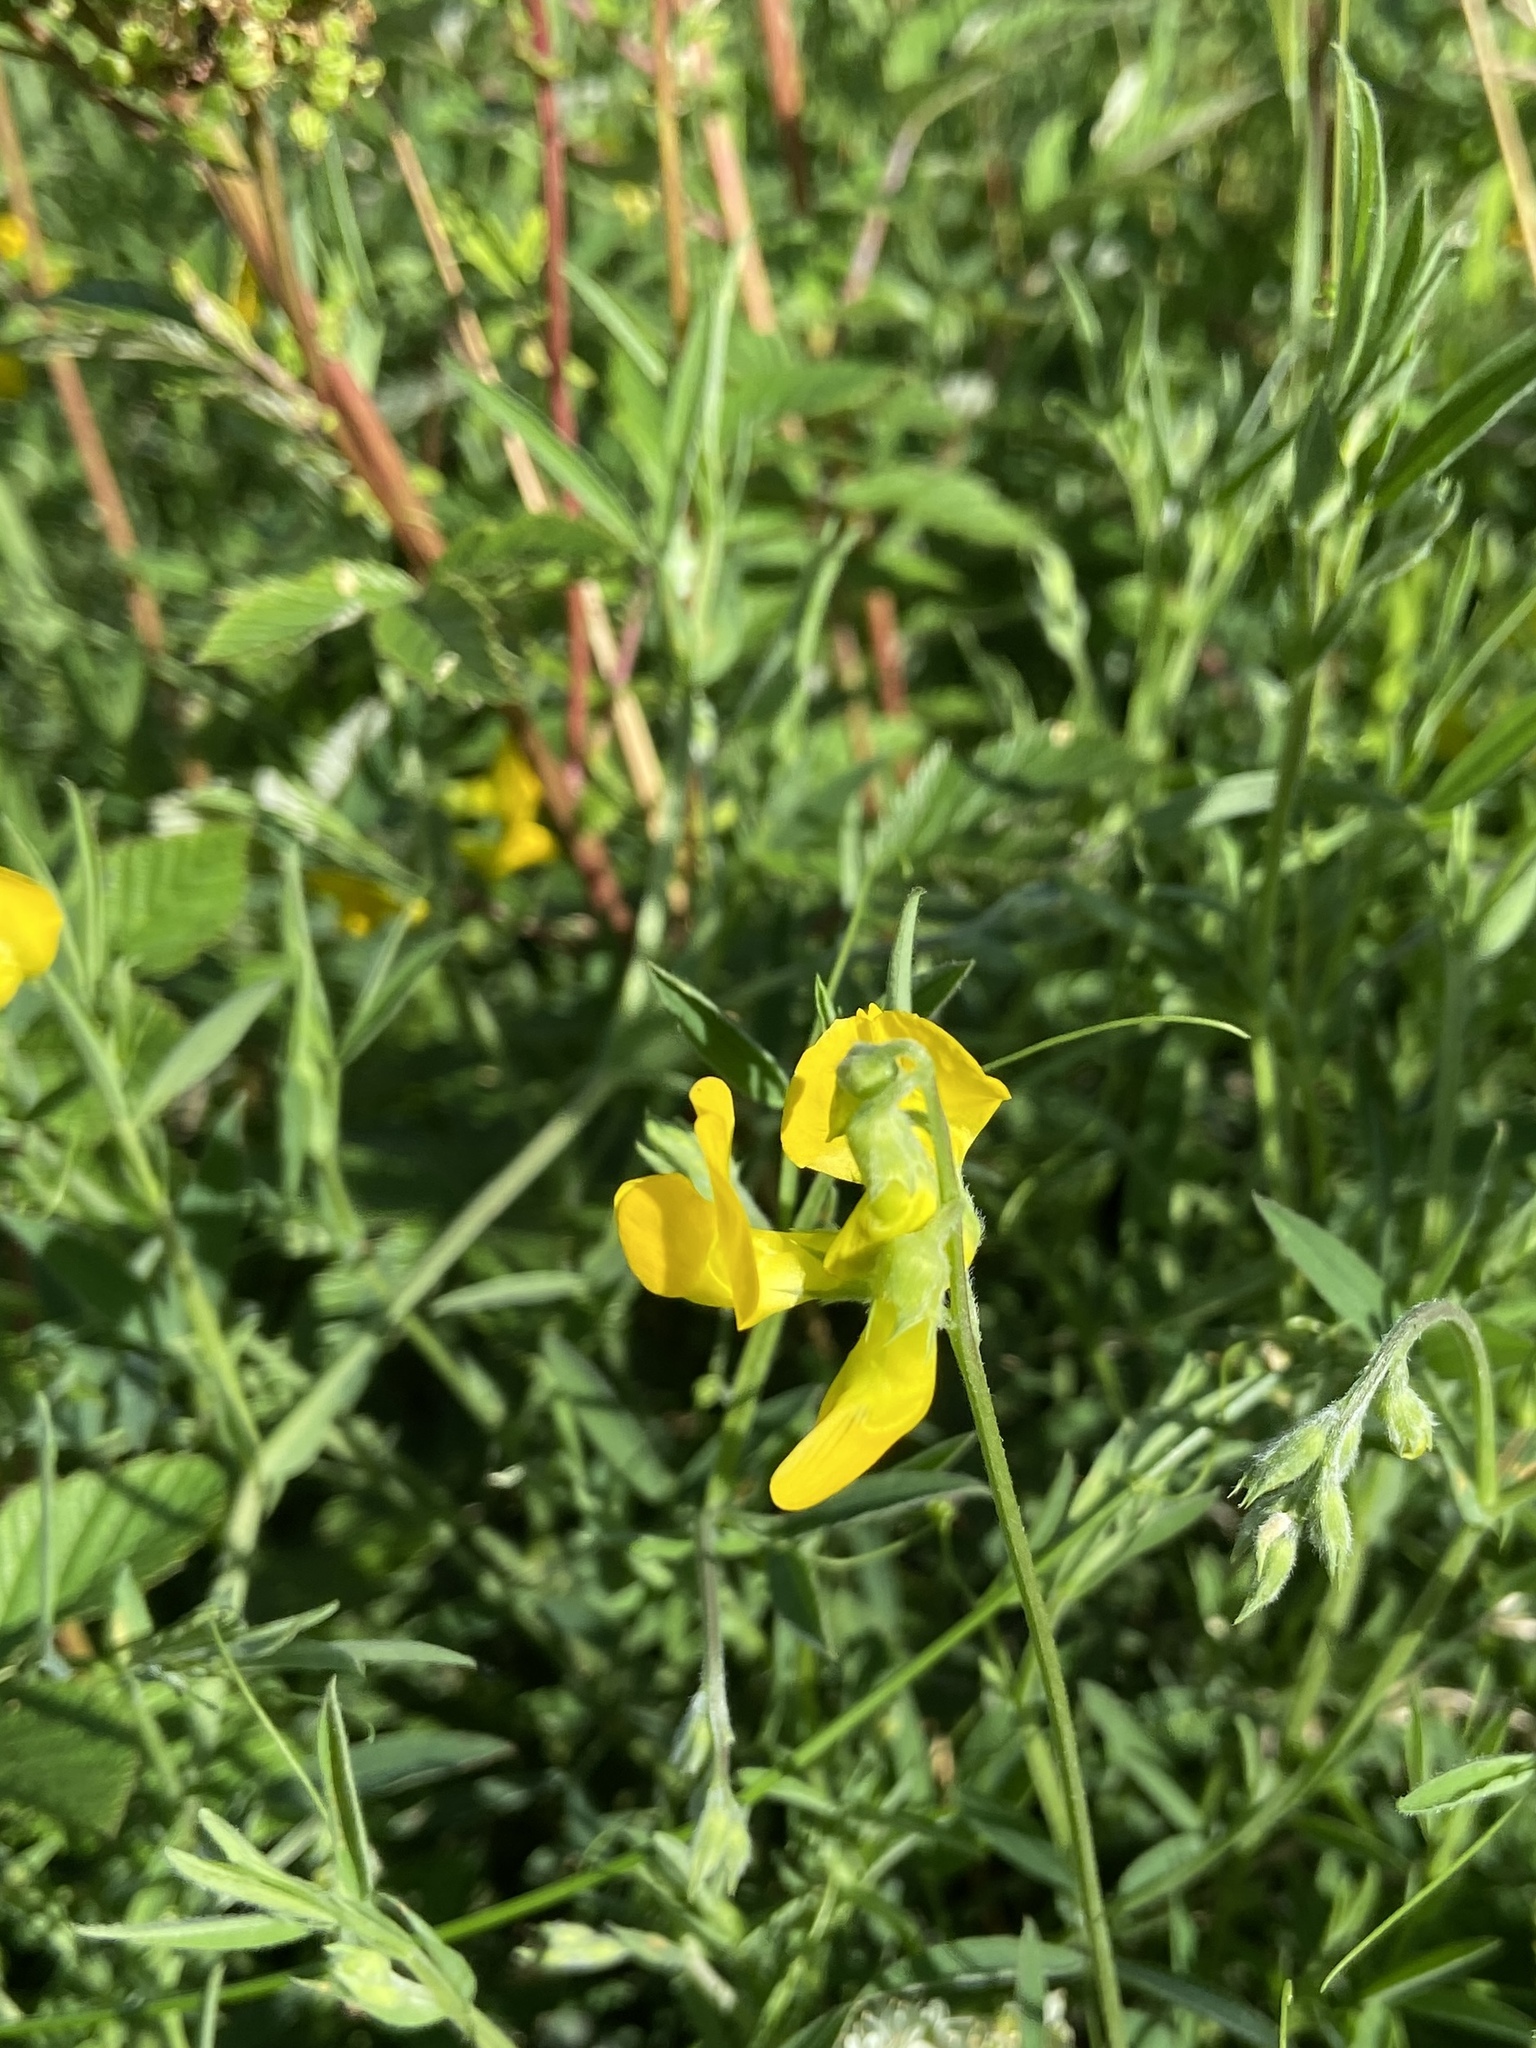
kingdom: Plantae
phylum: Tracheophyta
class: Magnoliopsida
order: Fabales
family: Fabaceae
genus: Lathyrus
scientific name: Lathyrus pratensis
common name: Meadow vetchling
